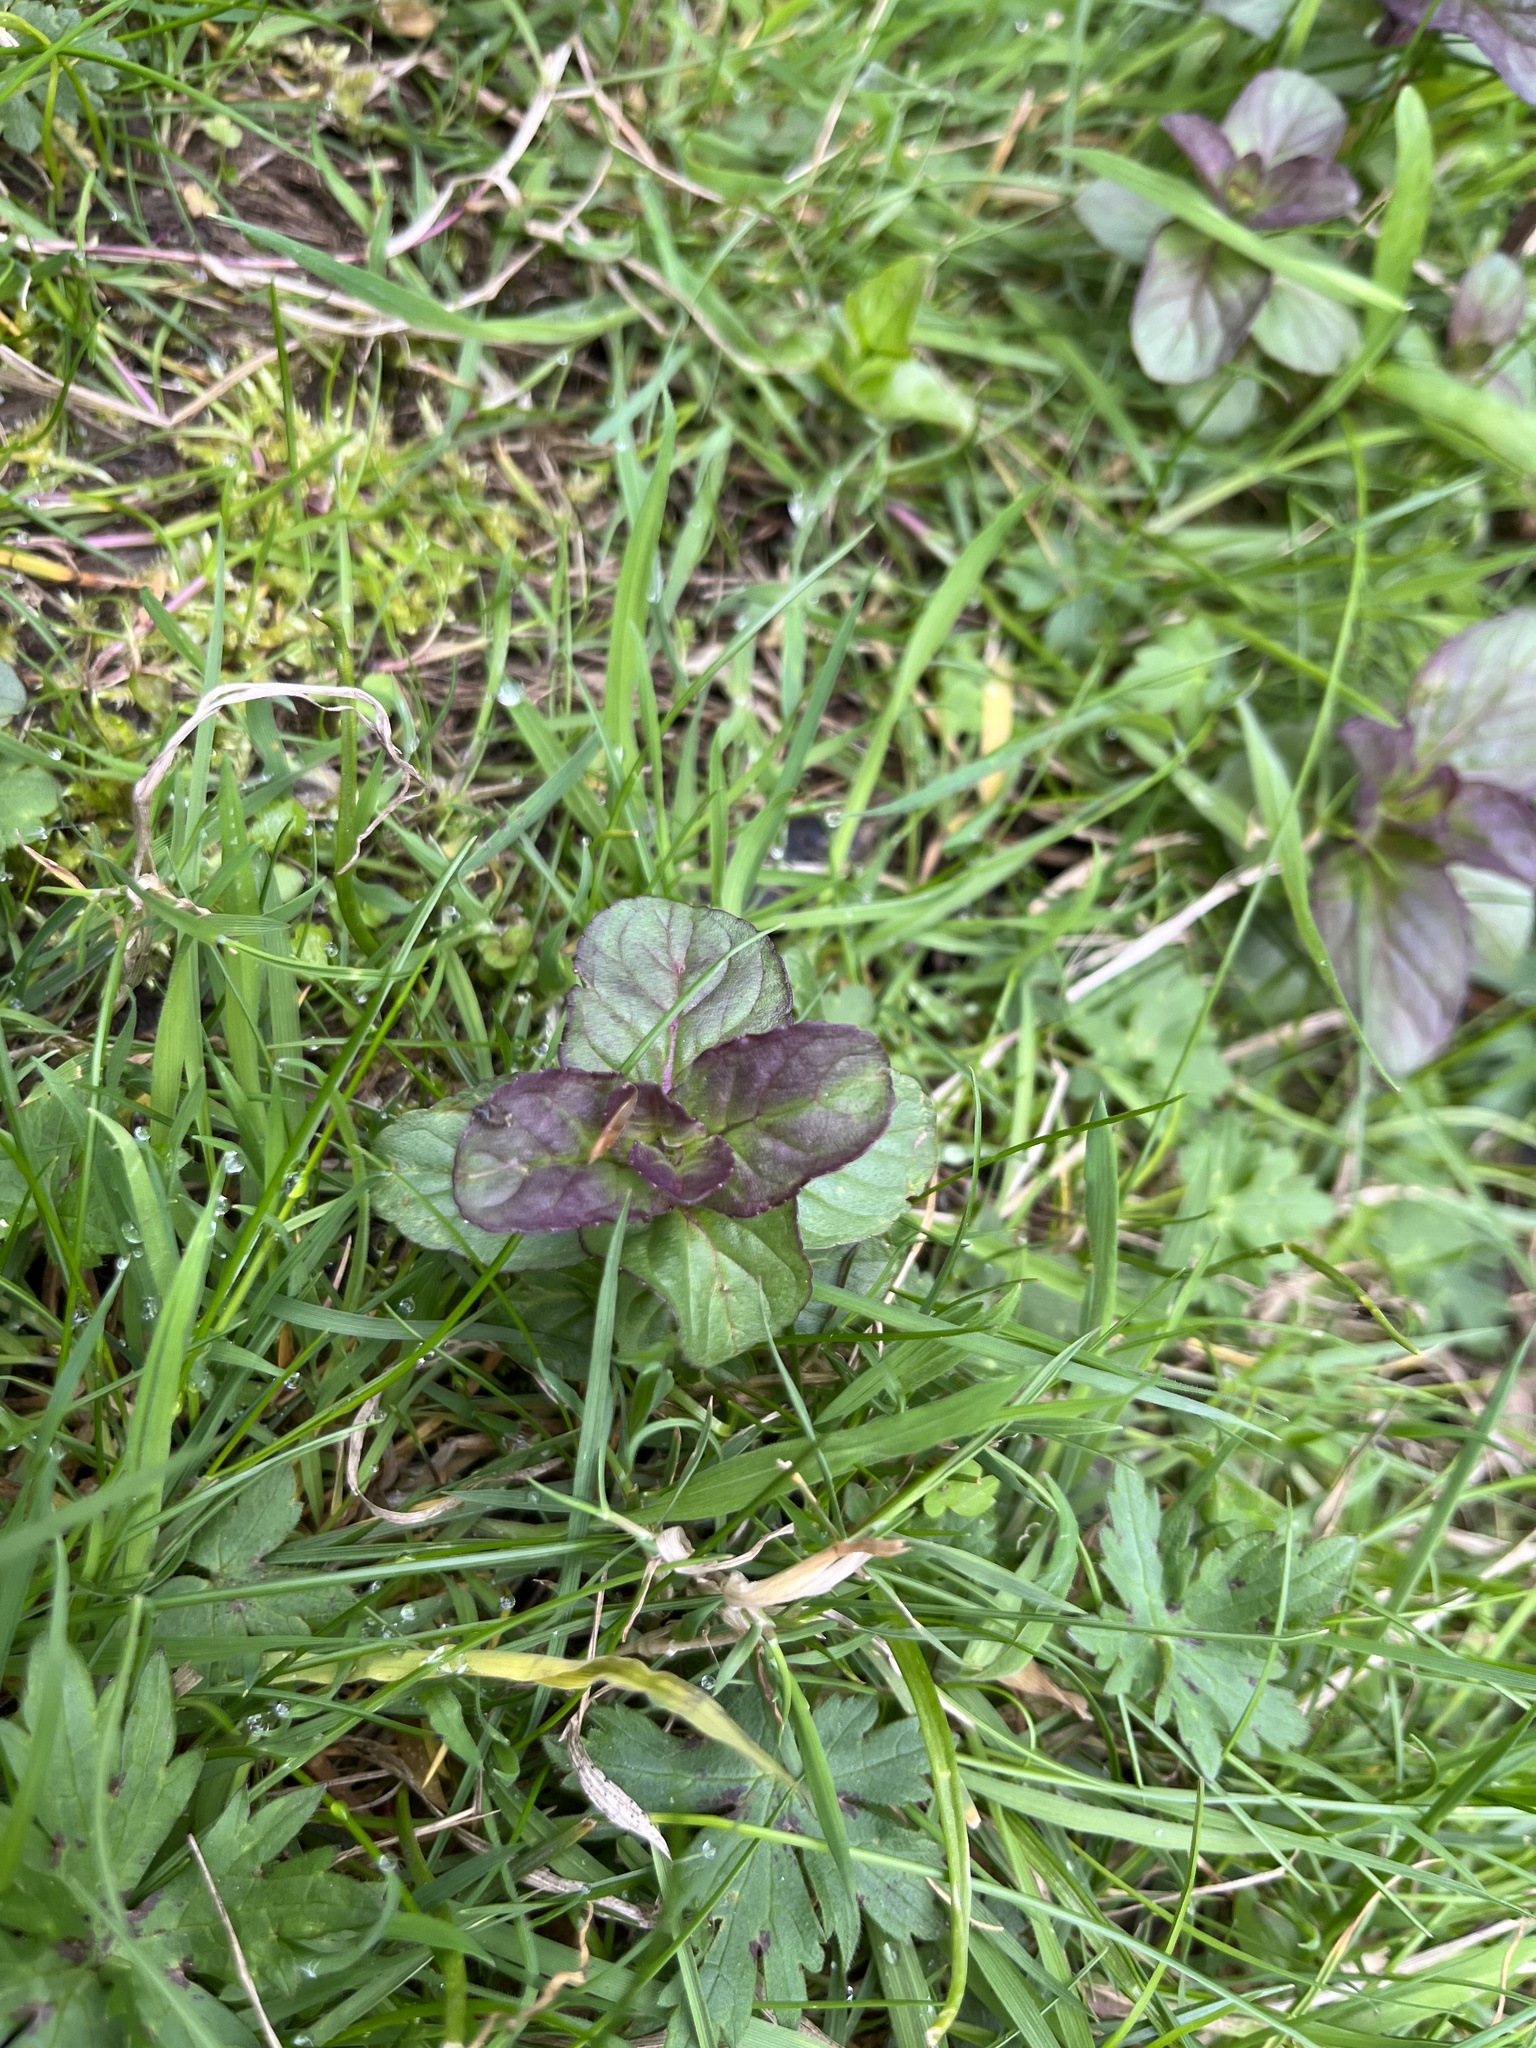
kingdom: Plantae
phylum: Tracheophyta
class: Magnoliopsida
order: Lamiales
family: Lamiaceae
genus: Mentha
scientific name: Mentha aquatica
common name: Water mint
